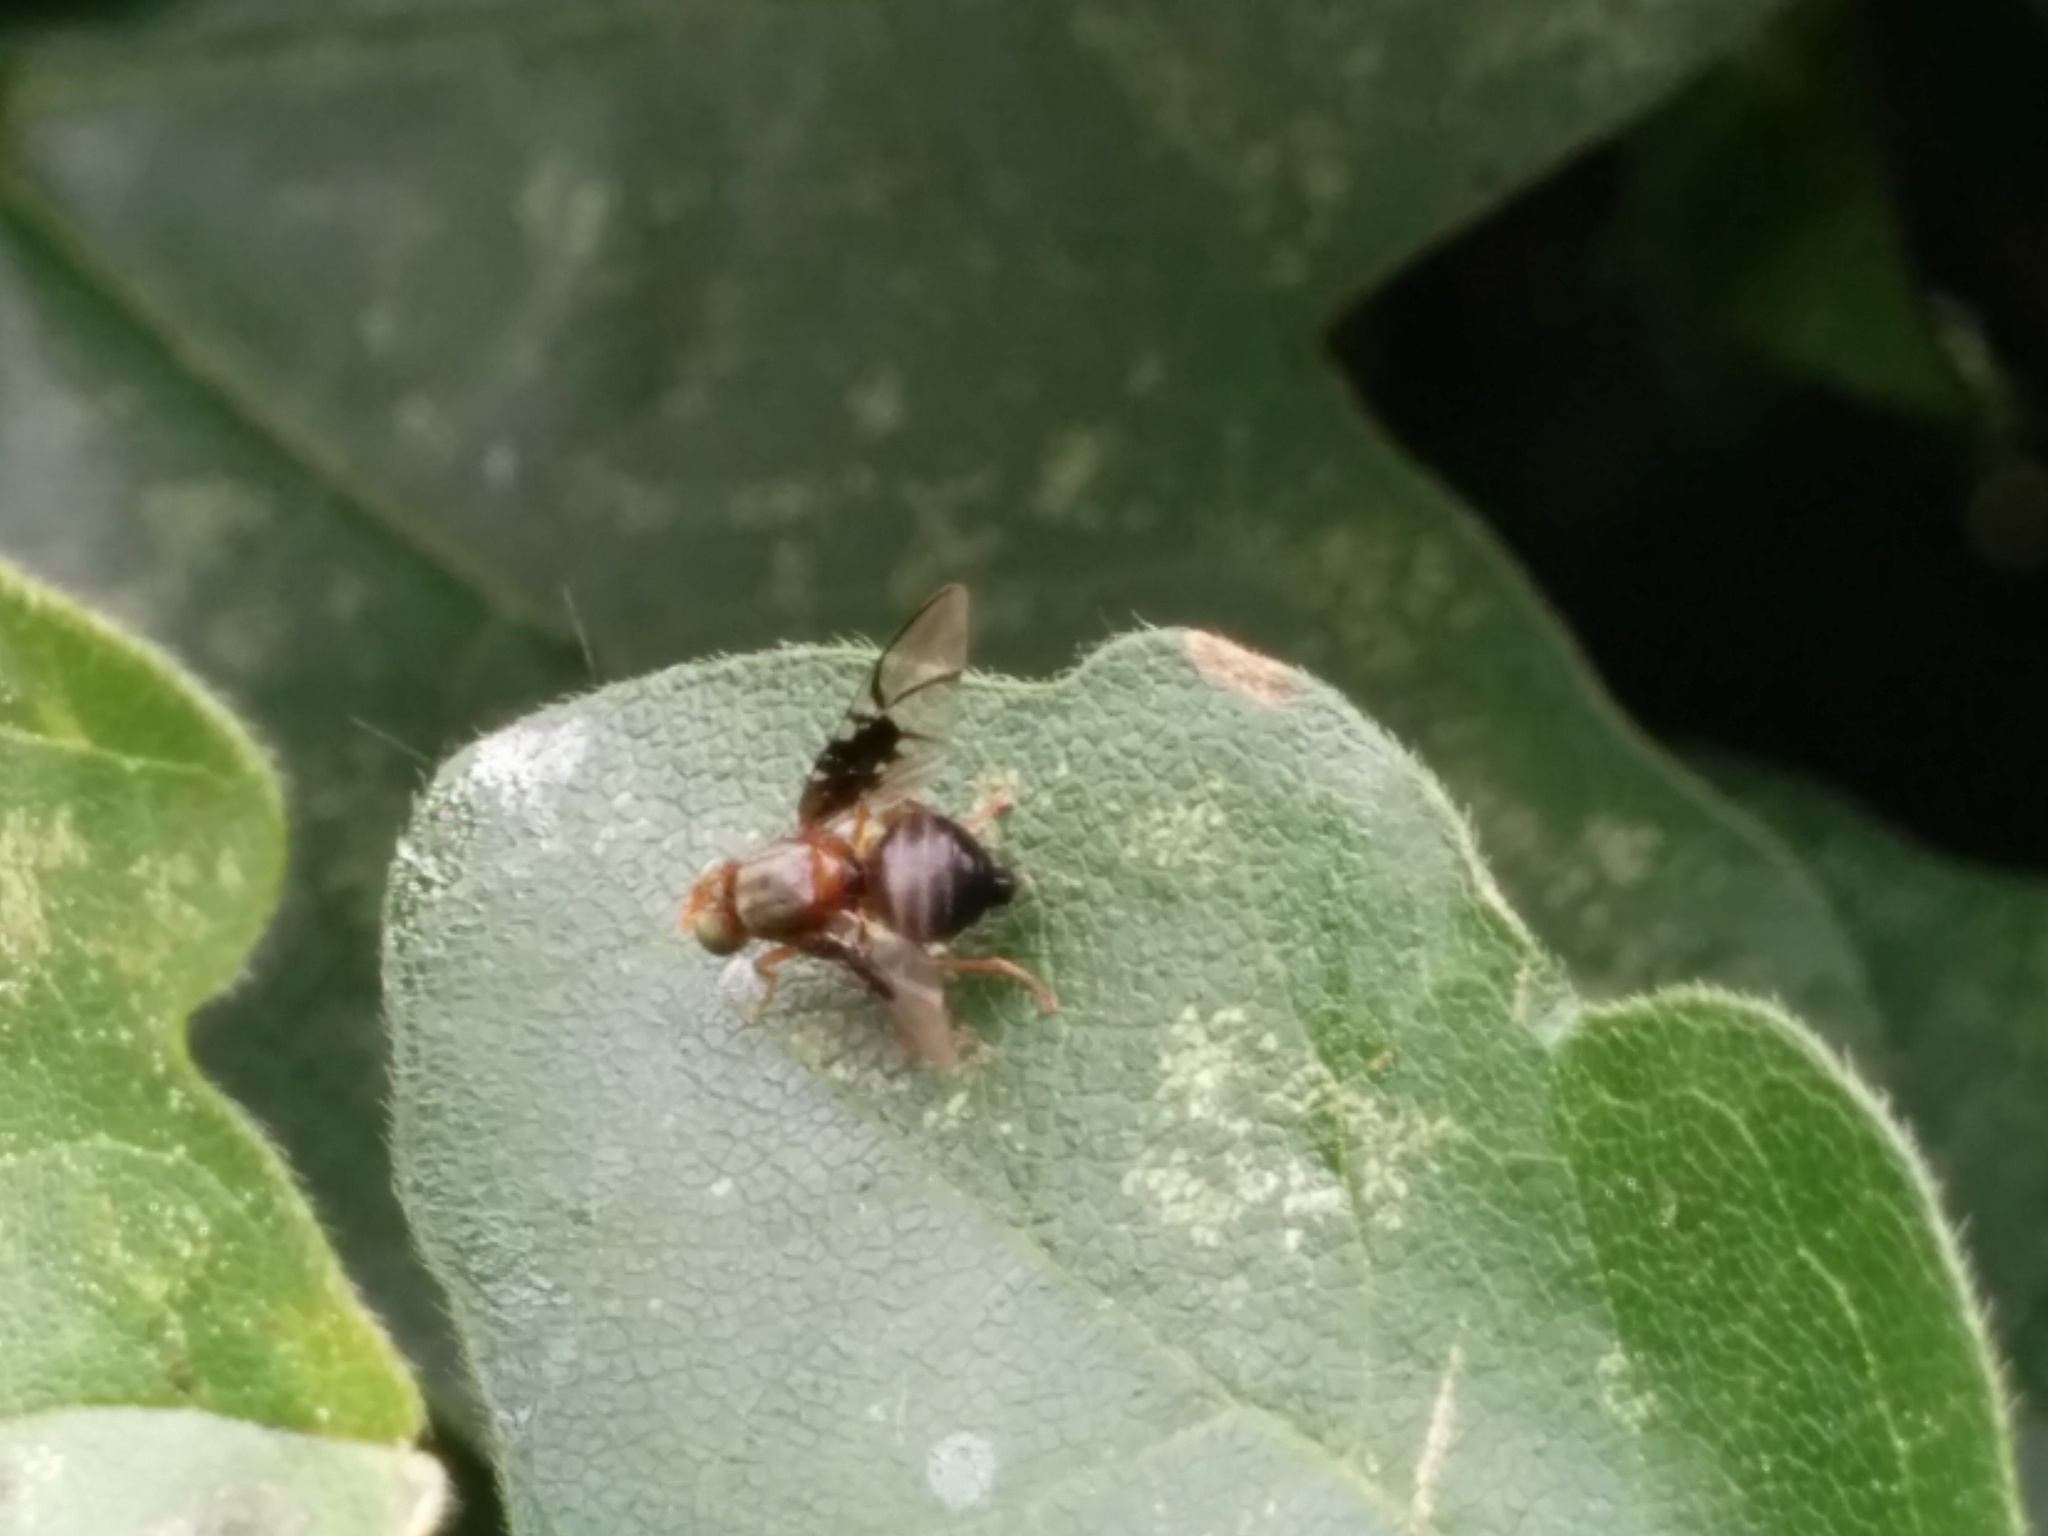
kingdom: Animalia
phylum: Arthropoda
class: Insecta
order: Diptera
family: Tephritidae
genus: Anomoia
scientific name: Anomoia purmunda
